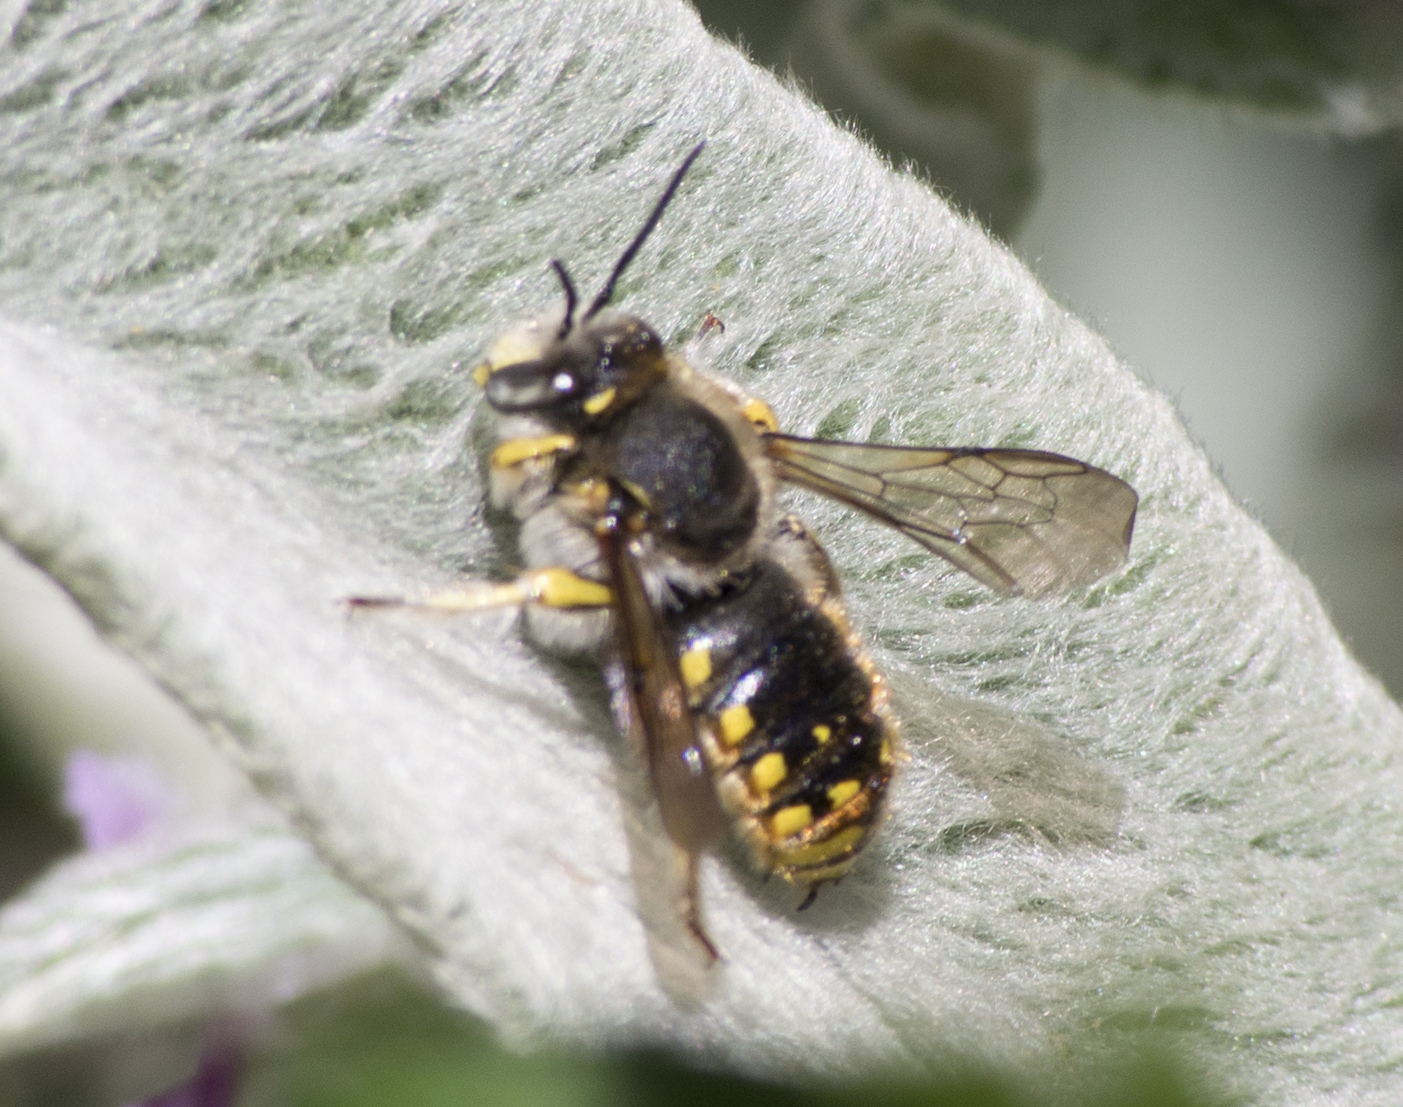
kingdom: Animalia
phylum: Arthropoda
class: Insecta
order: Hymenoptera
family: Megachilidae
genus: Anthidium
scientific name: Anthidium manicatum
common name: Wool carder bee
